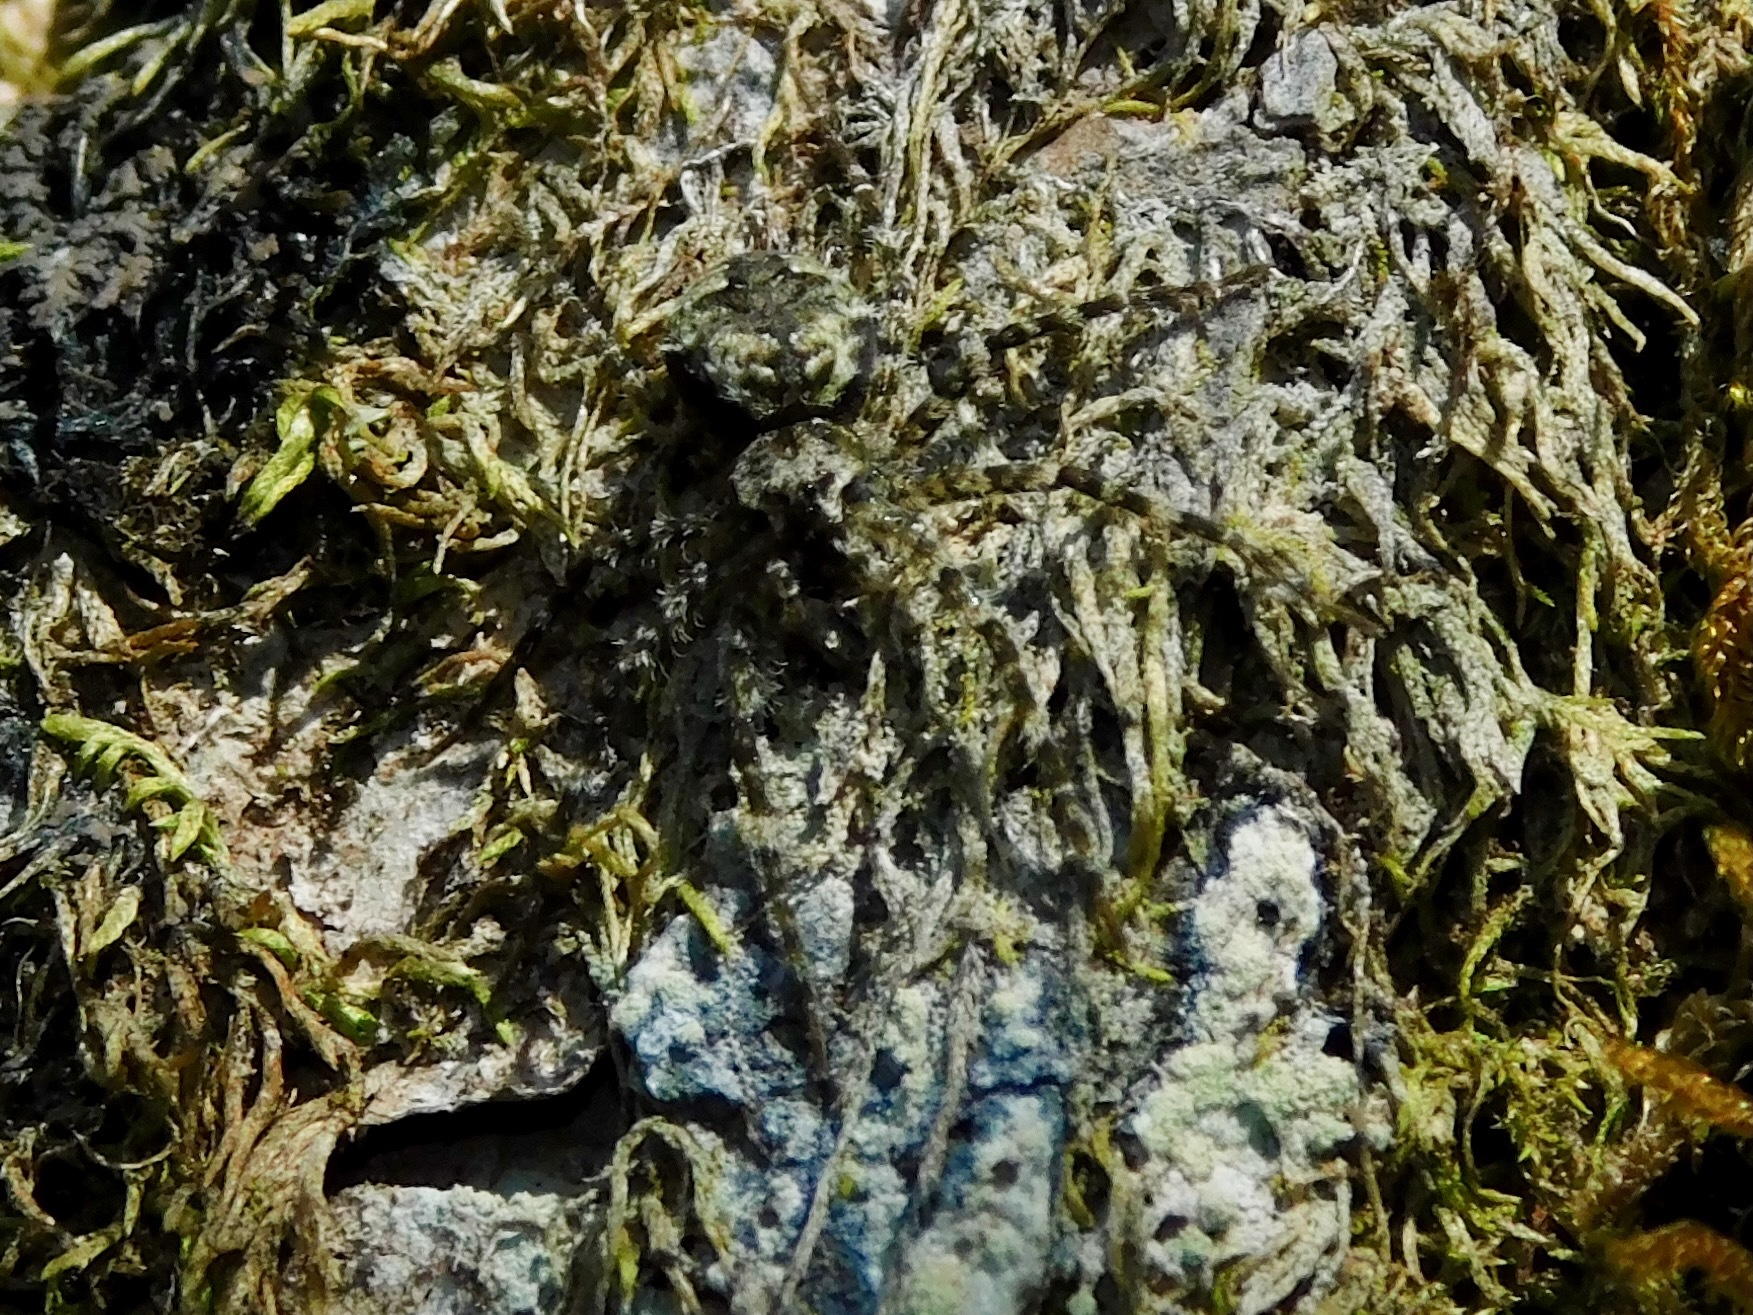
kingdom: Animalia
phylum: Arthropoda
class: Arachnida
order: Araneae
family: Pisauridae
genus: Dolomedes
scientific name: Dolomedes tenebrosus
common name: Dark fishing spider
